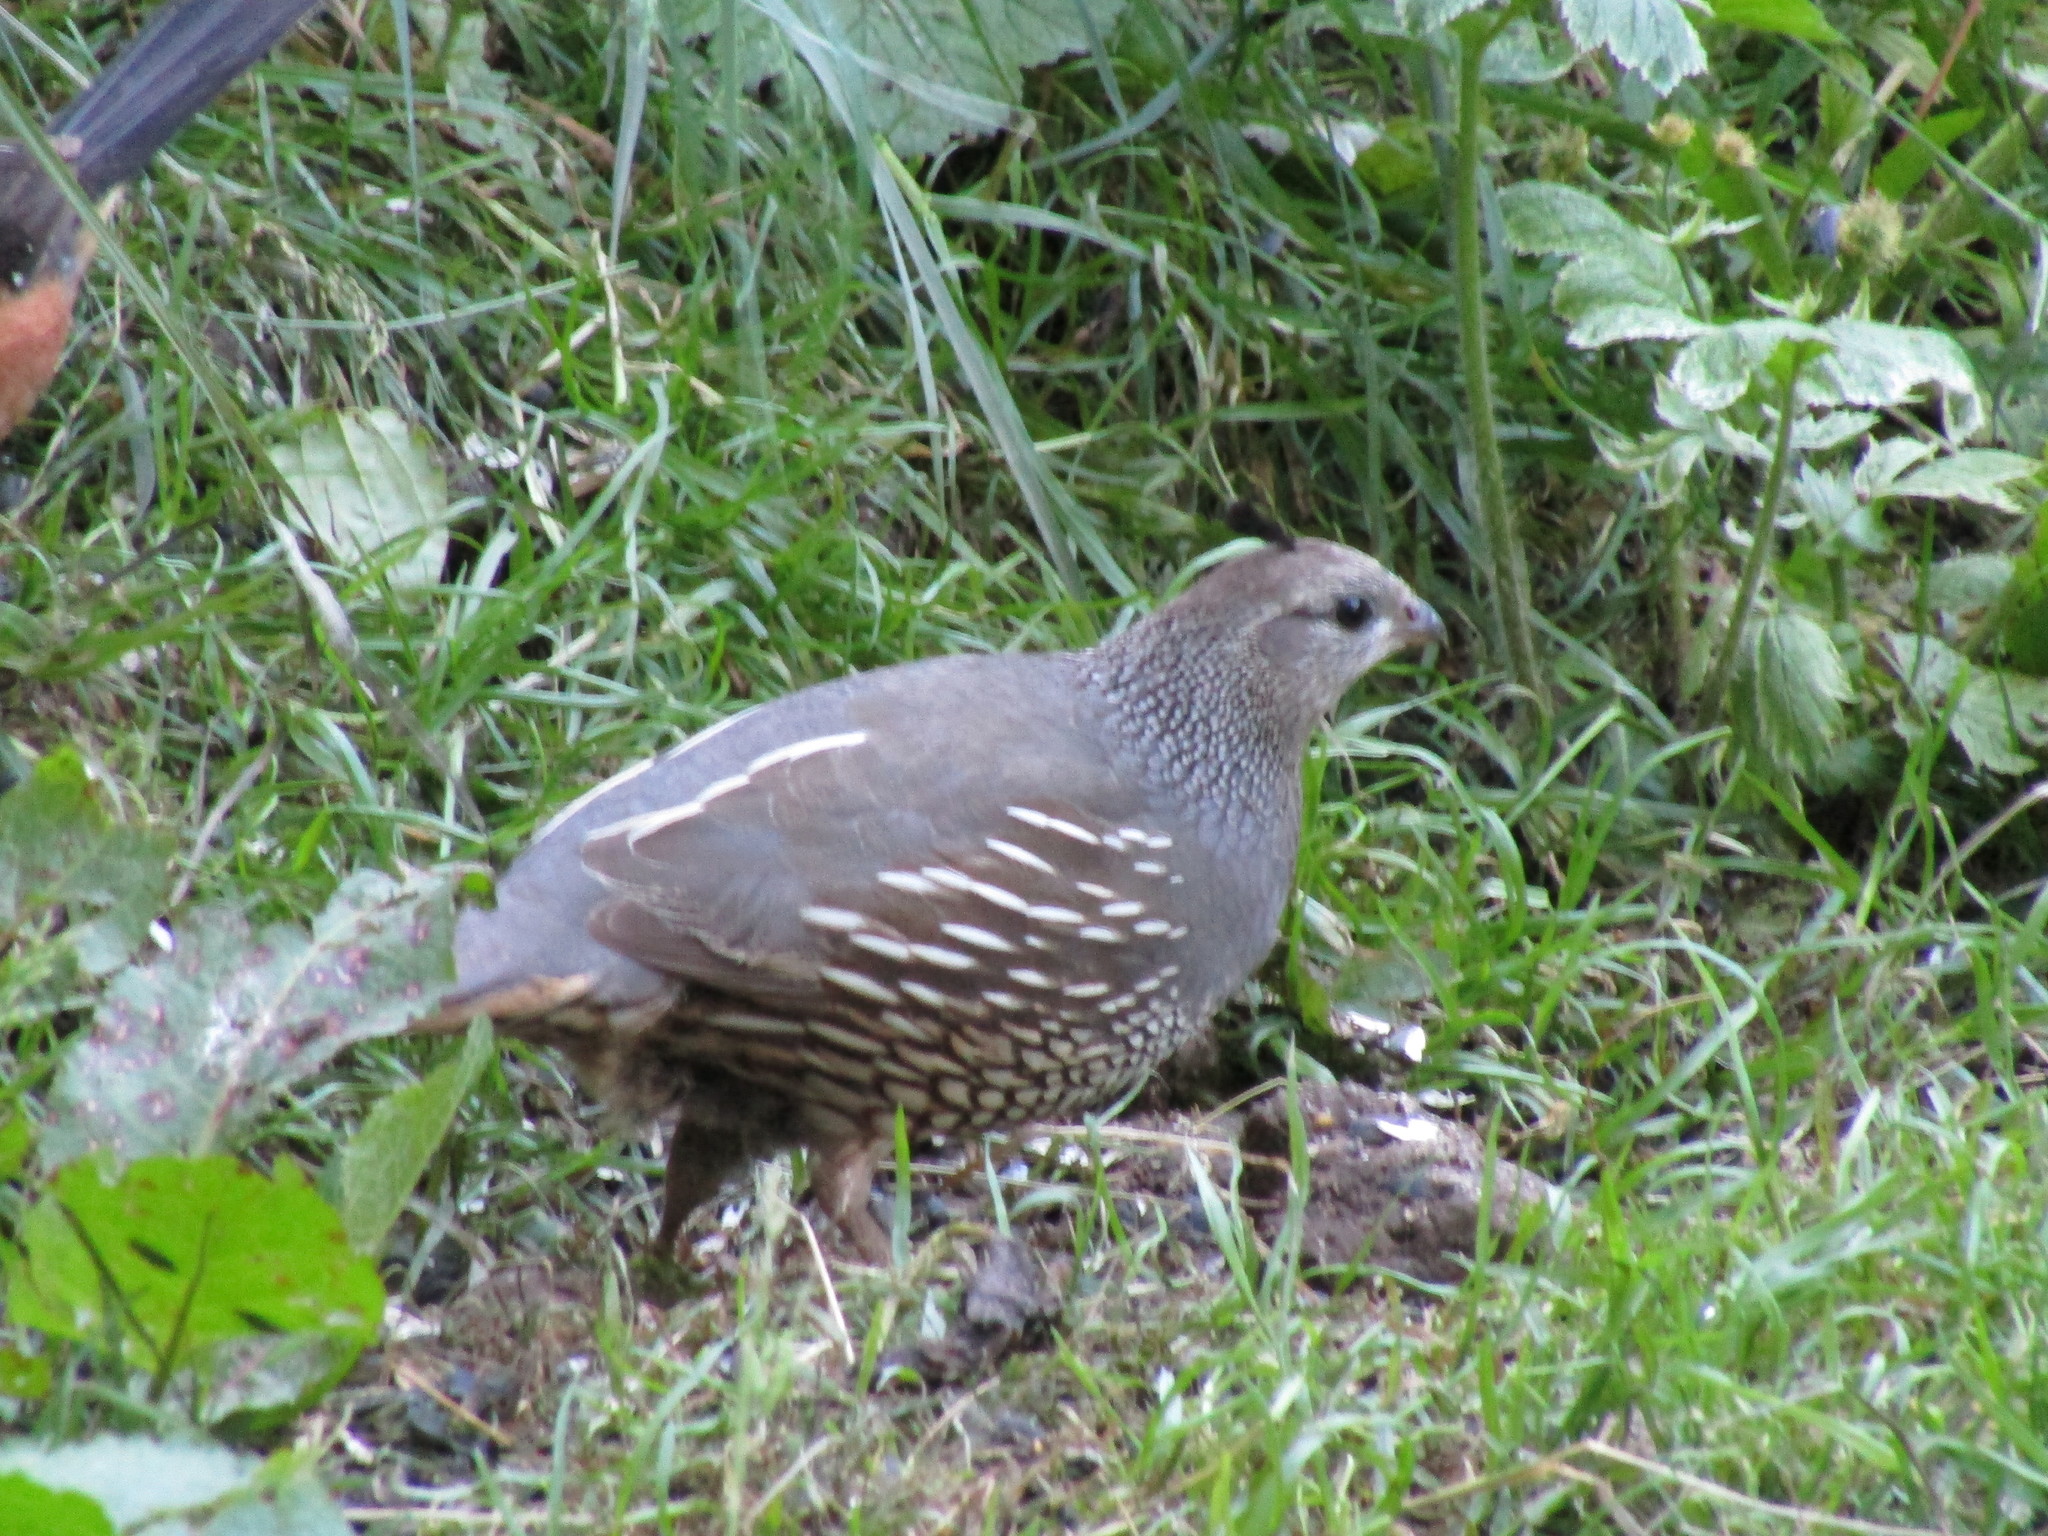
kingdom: Animalia
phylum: Chordata
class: Aves
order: Galliformes
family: Odontophoridae
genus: Callipepla
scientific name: Callipepla californica
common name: California quail
